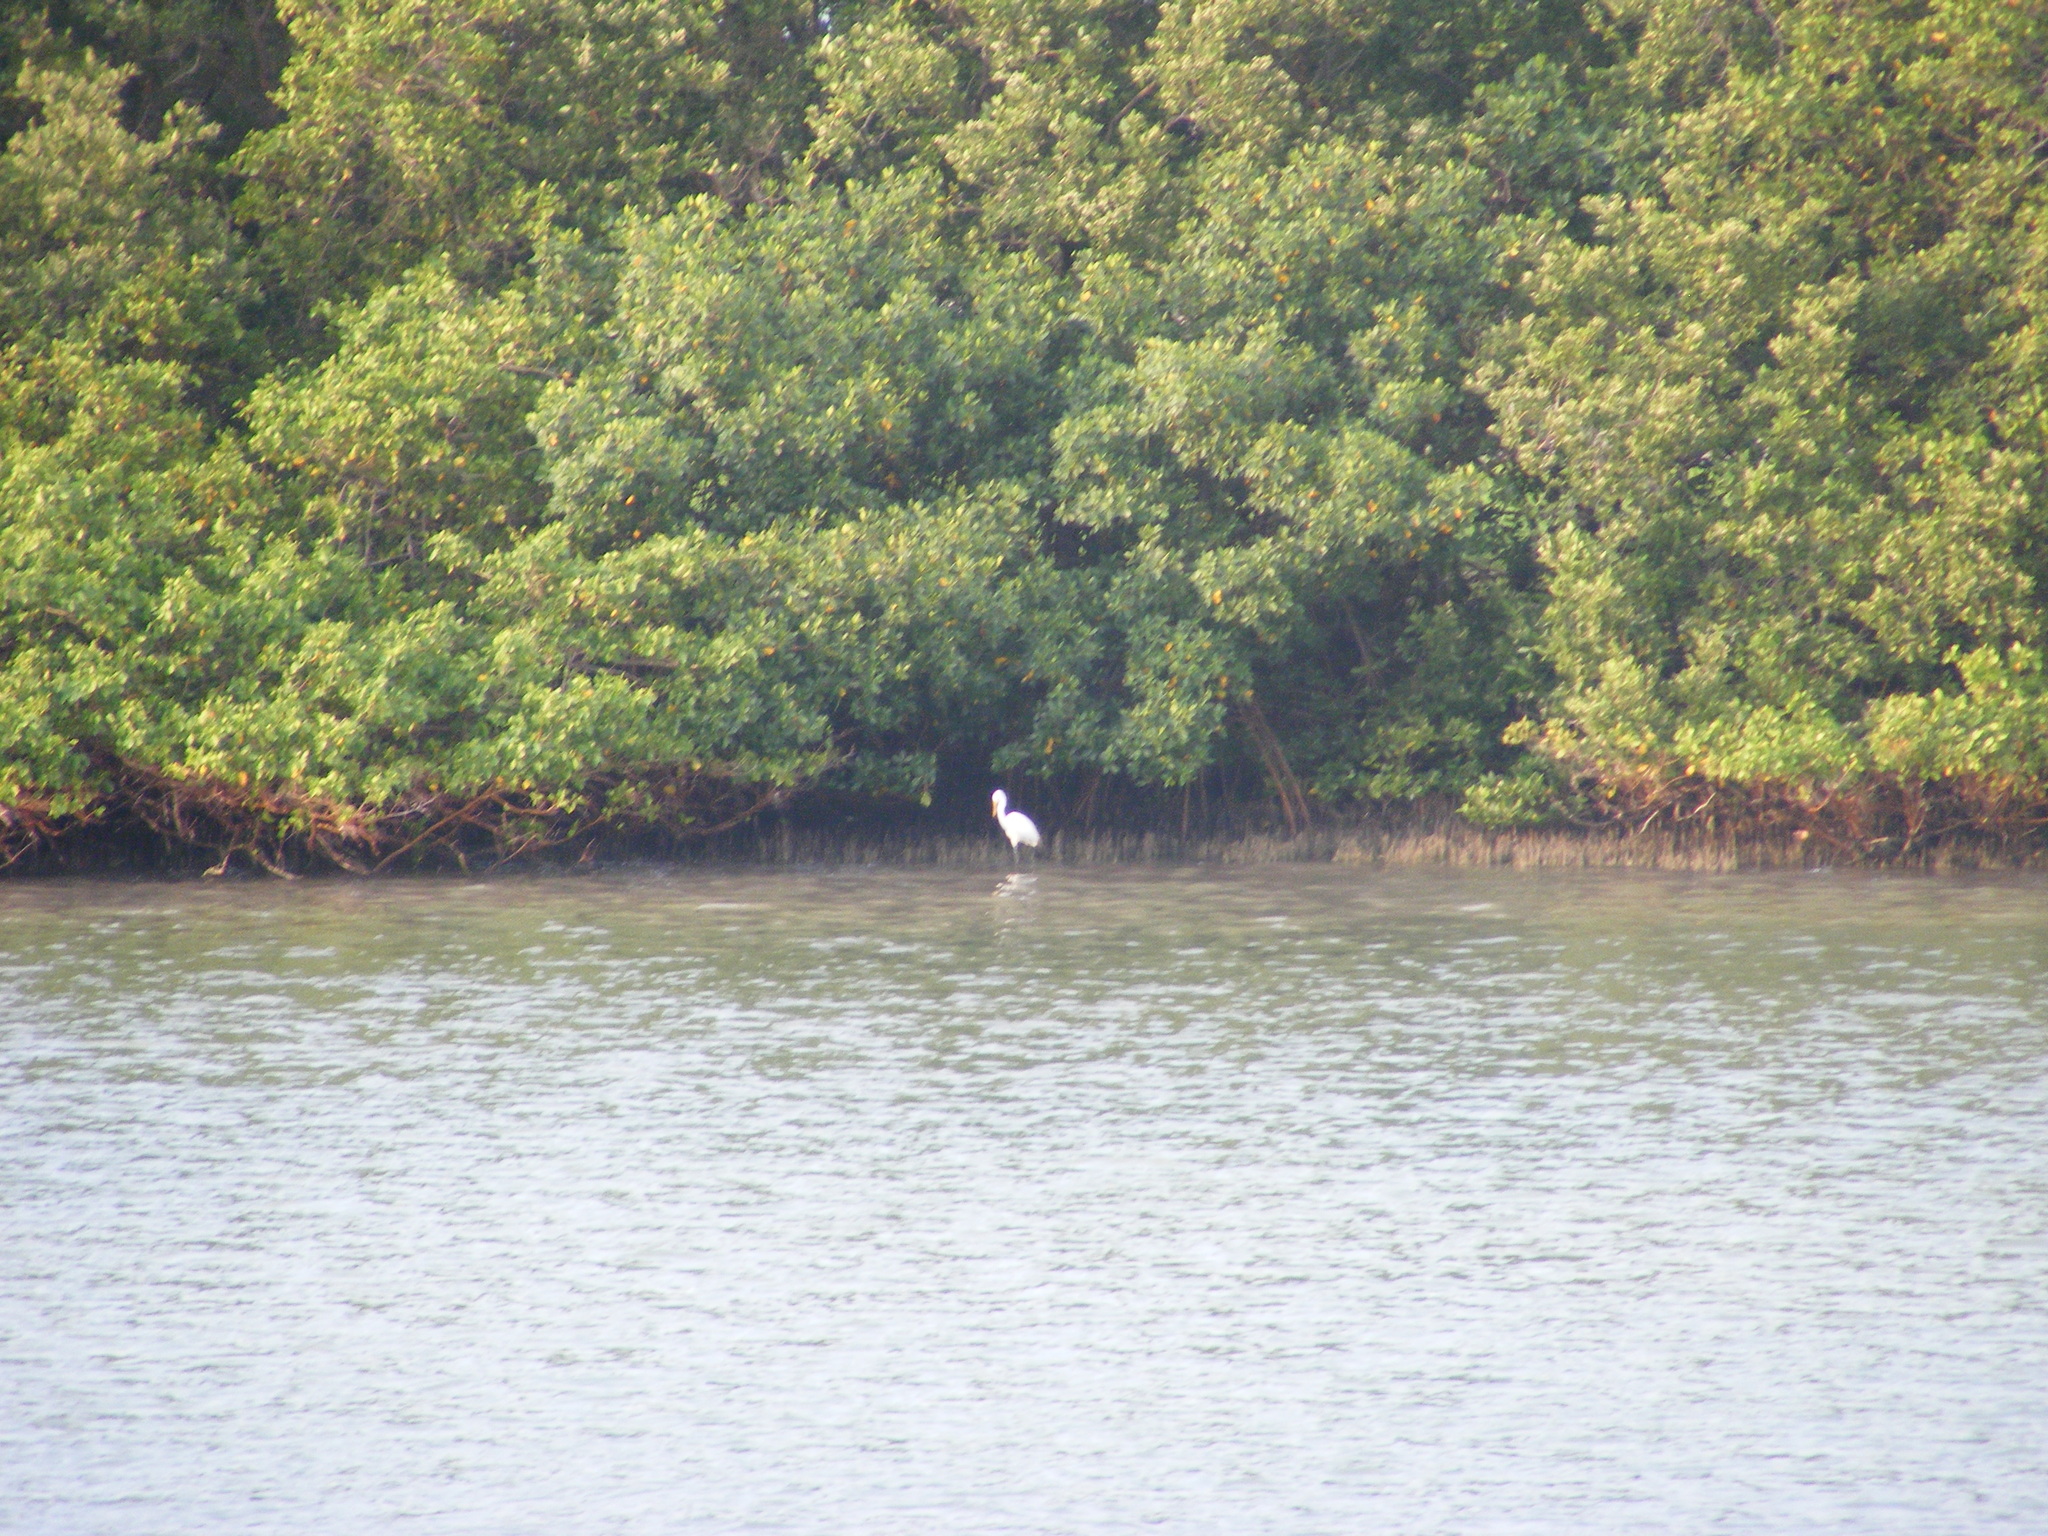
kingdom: Animalia
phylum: Chordata
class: Aves
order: Pelecaniformes
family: Ardeidae
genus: Ardea
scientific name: Ardea alba
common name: Great egret
